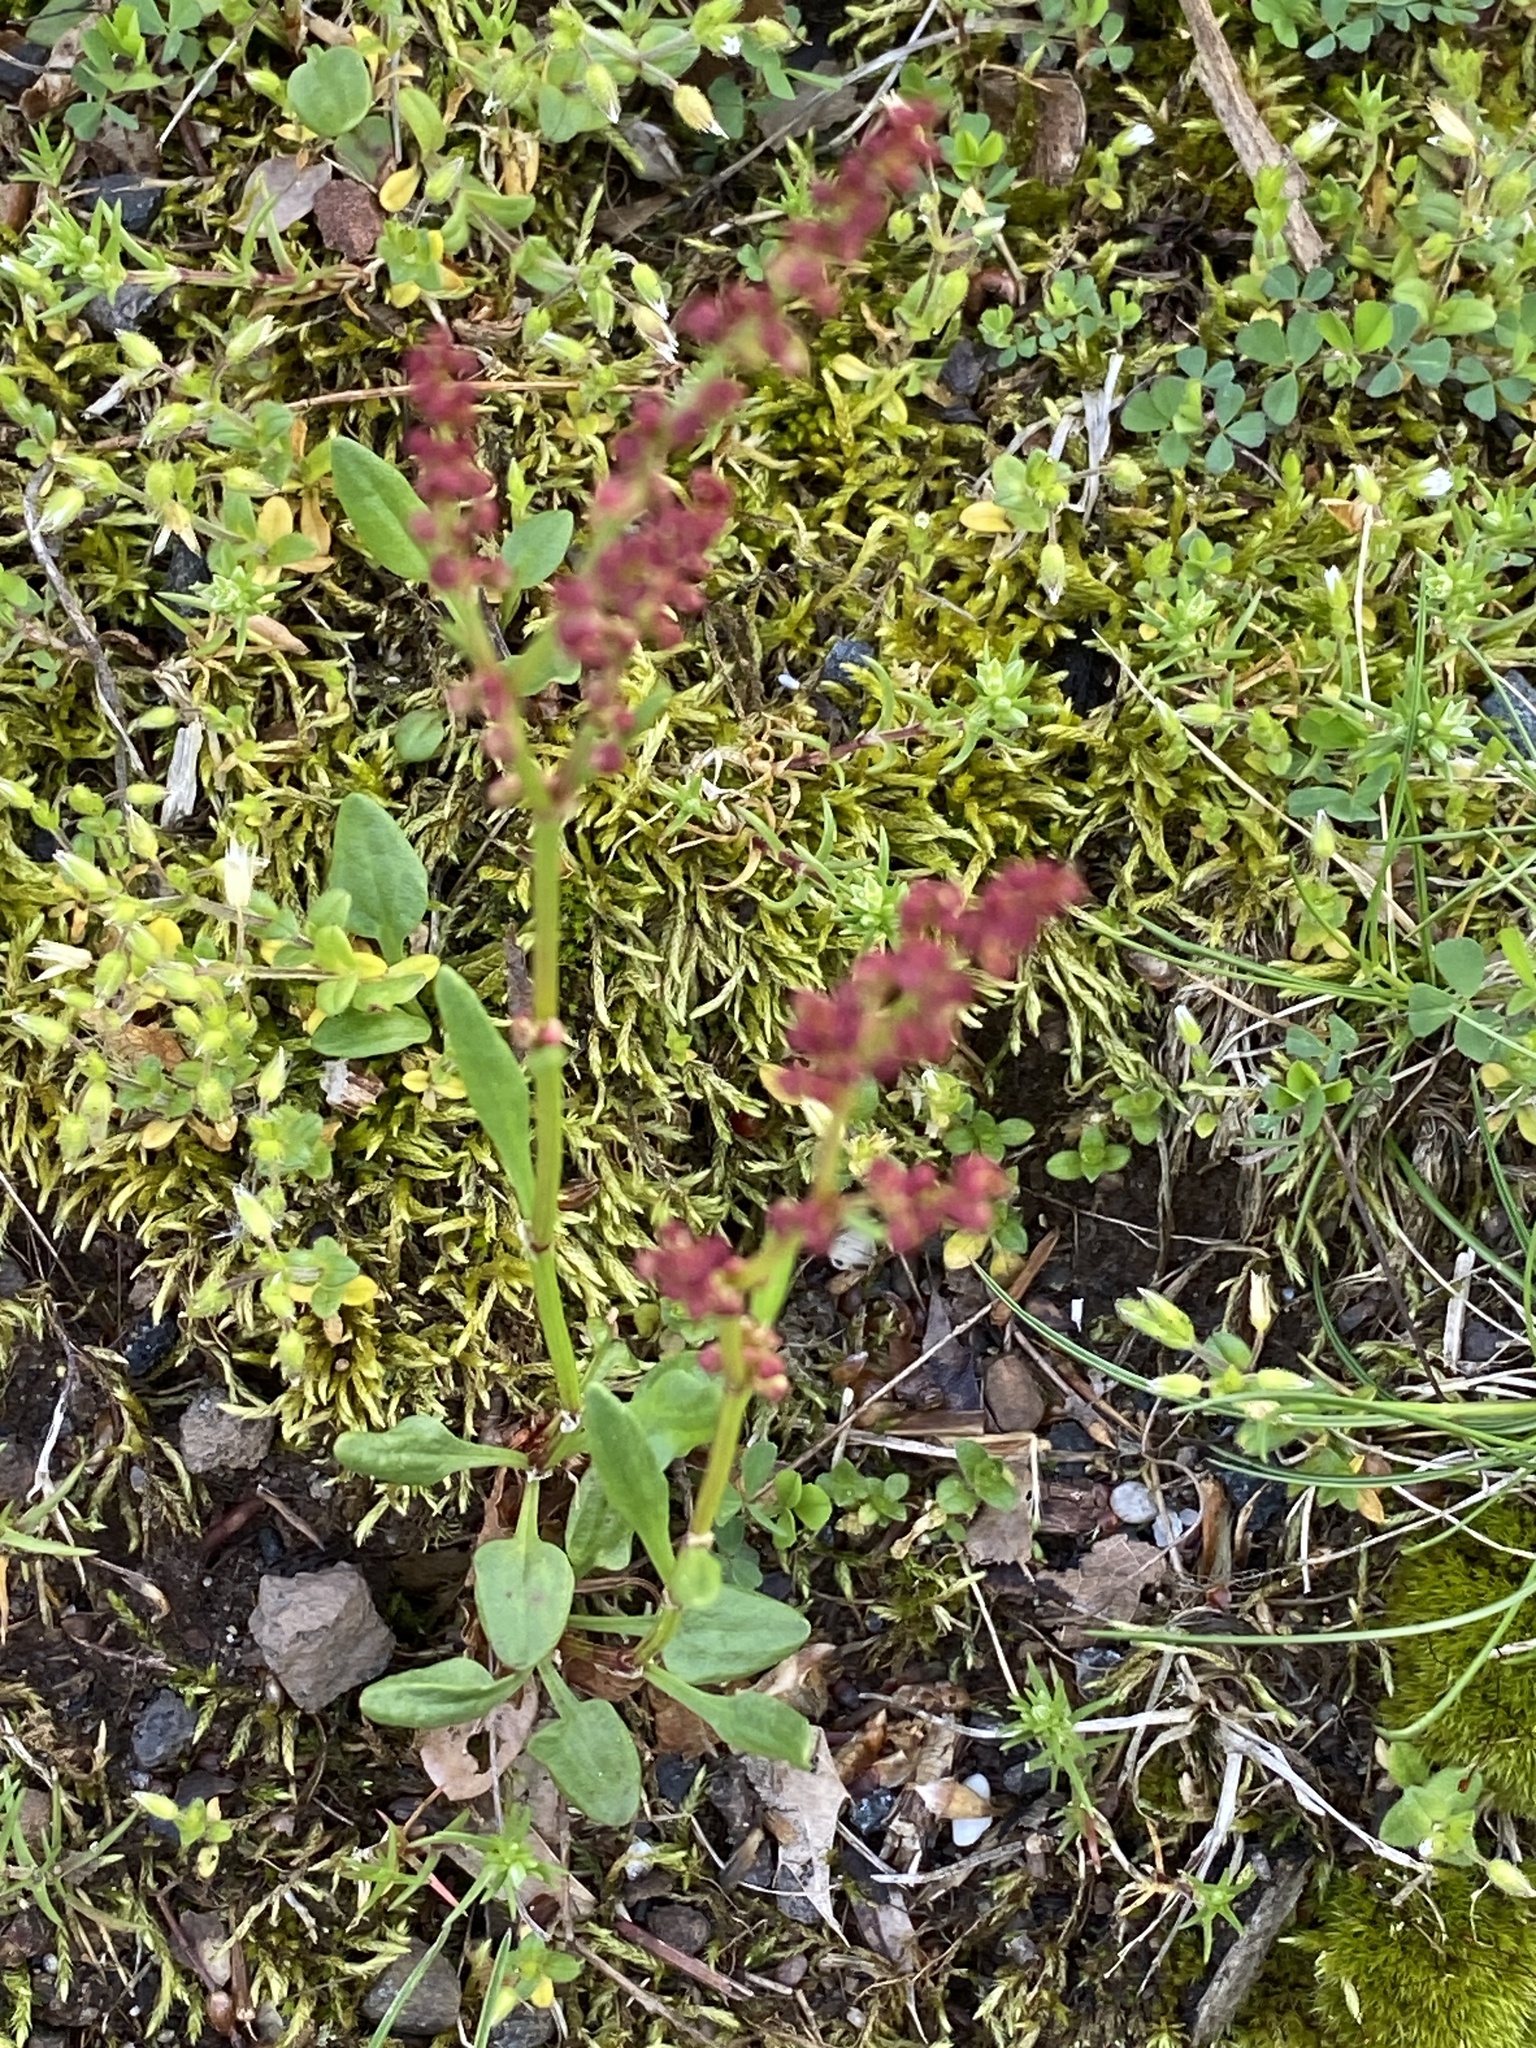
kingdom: Plantae
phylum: Tracheophyta
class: Magnoliopsida
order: Caryophyllales
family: Polygonaceae
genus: Rumex
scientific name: Rumex acetosella
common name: Common sheep sorrel
